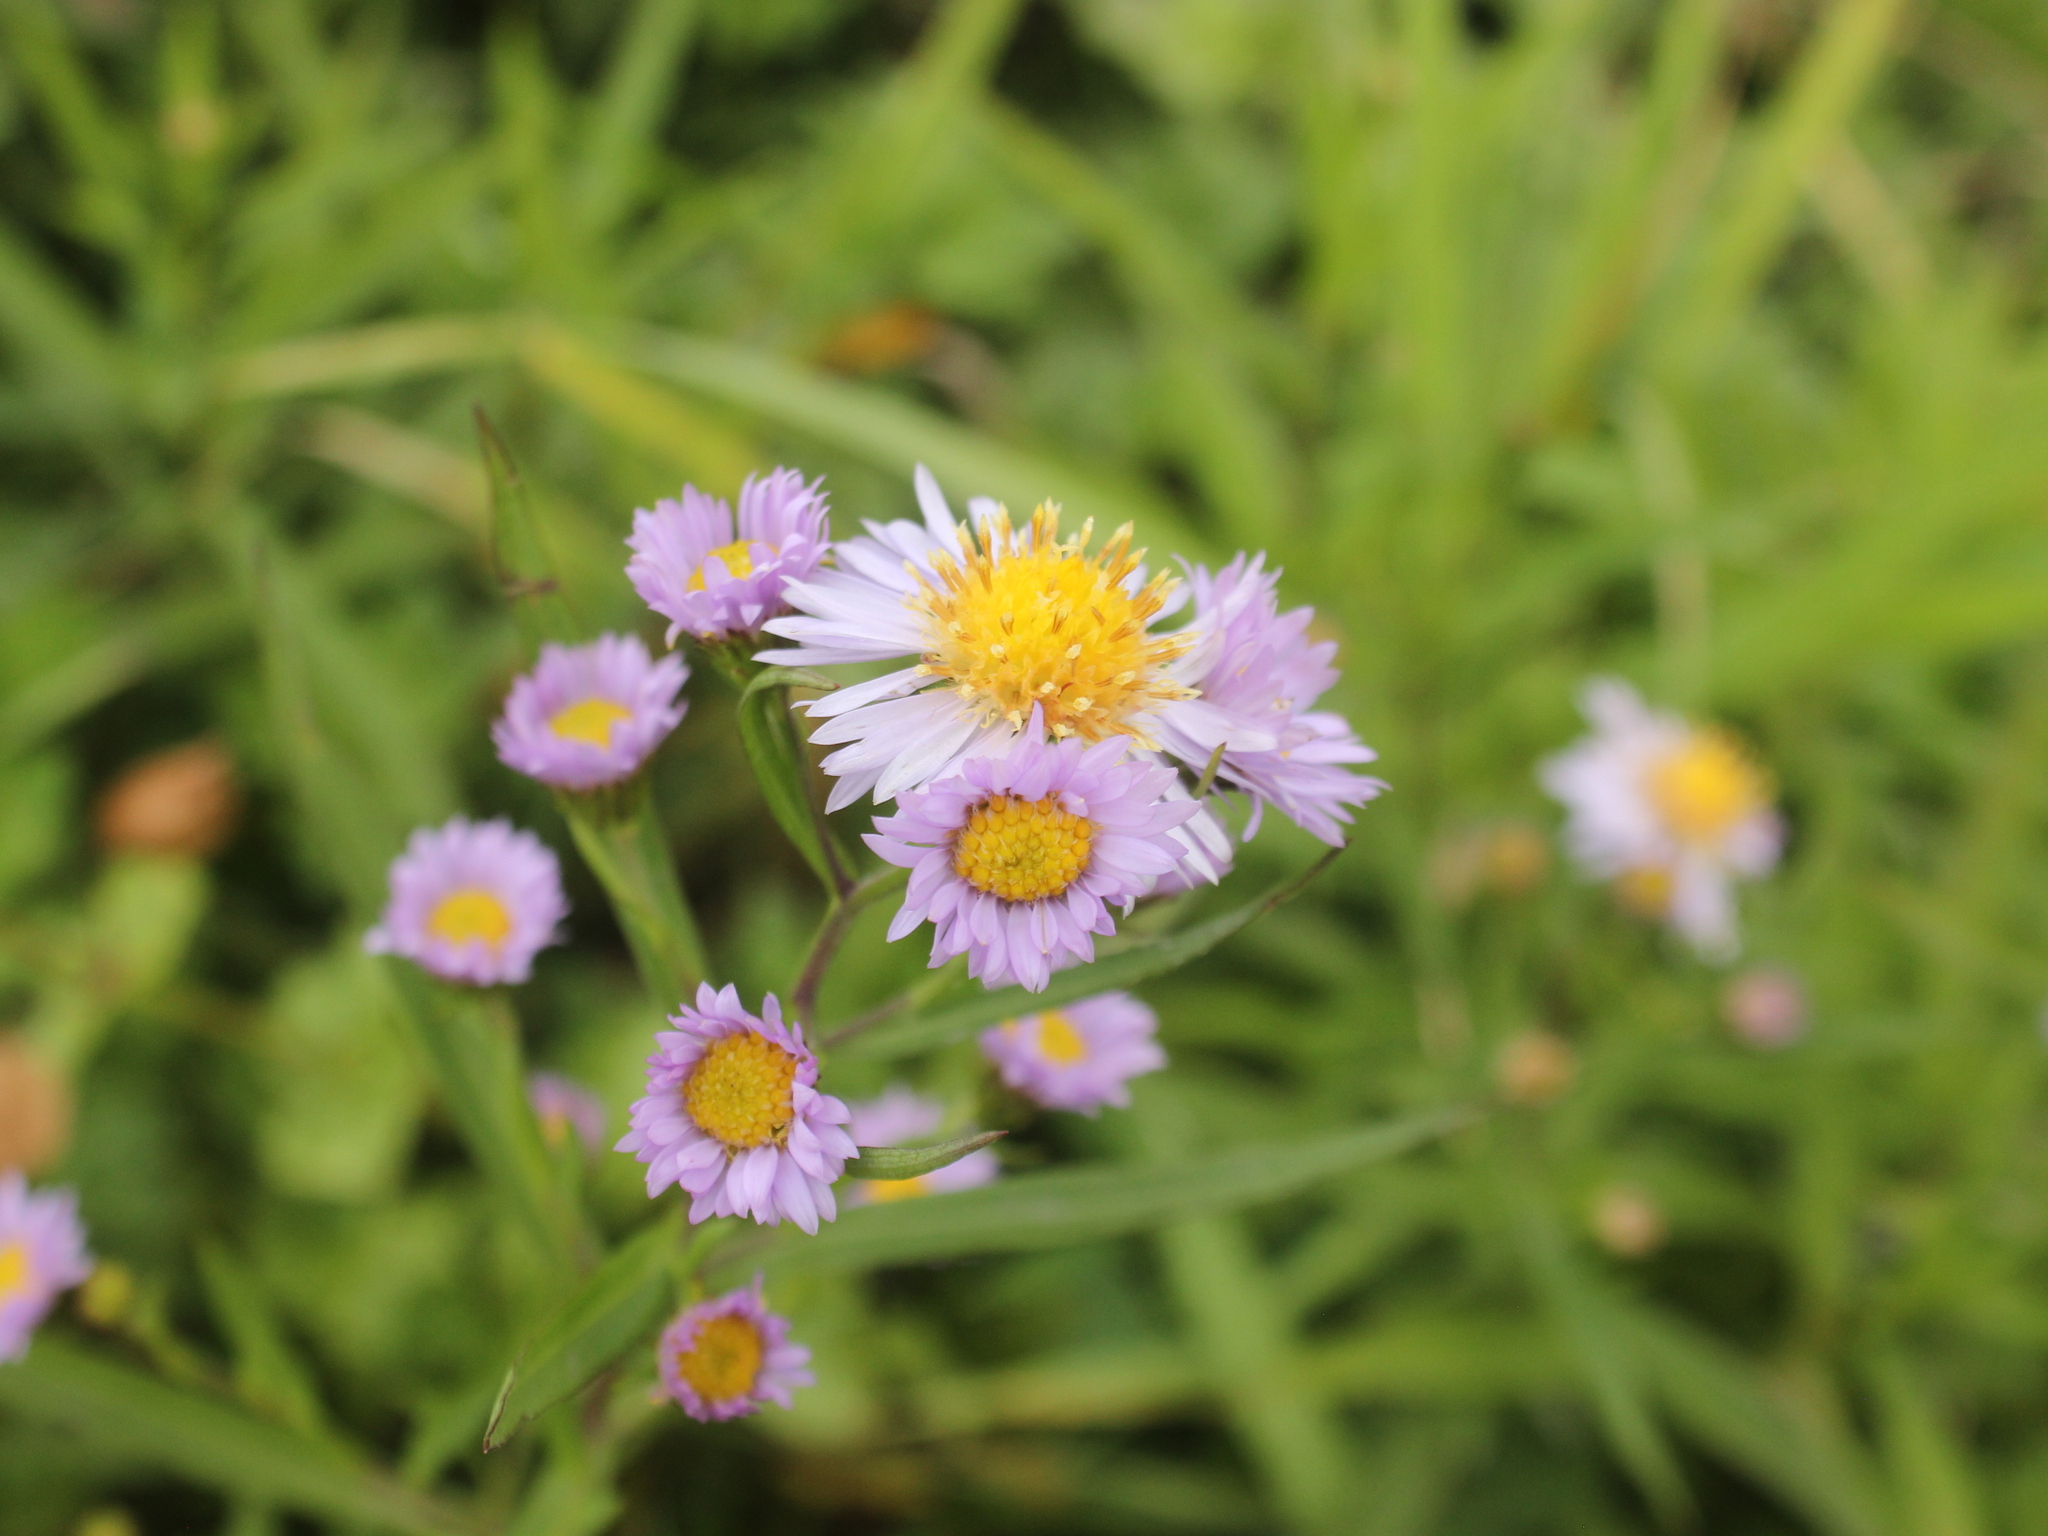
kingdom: Plantae
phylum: Tracheophyta
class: Magnoliopsida
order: Asterales
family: Asteraceae
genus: Symphyotrichum
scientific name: Symphyotrichum novi-belgii
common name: Michaelmas daisy
